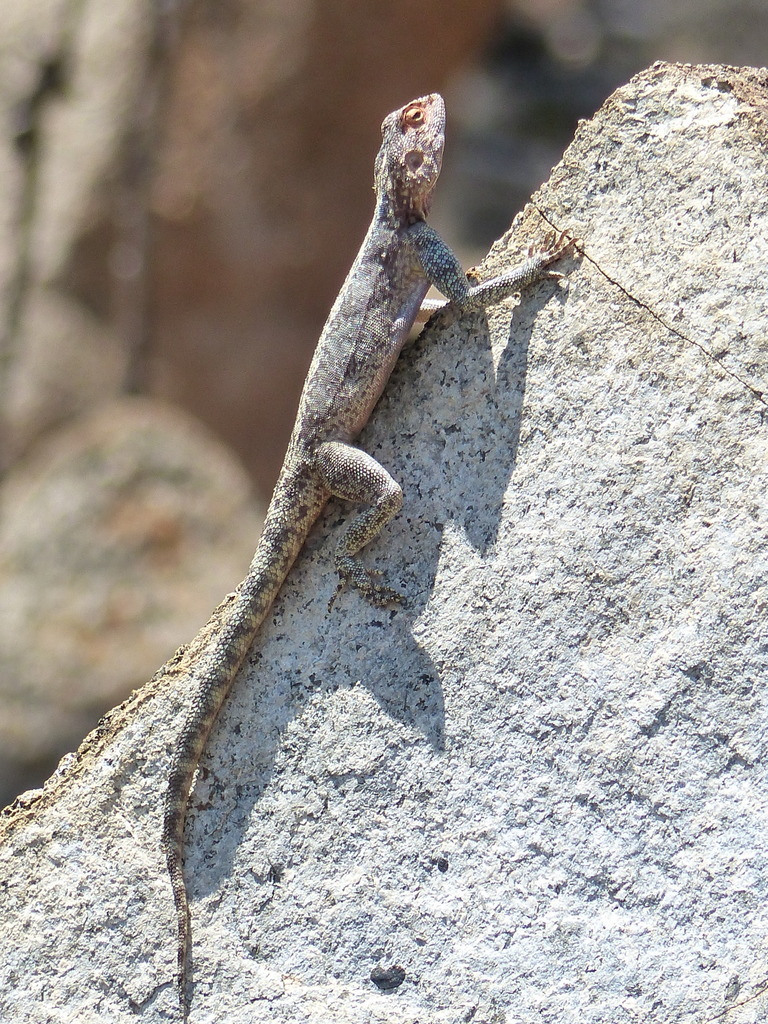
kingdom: Animalia
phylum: Chordata
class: Squamata
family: Agamidae
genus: Agama
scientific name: Agama atra
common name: Southern african rock agama
